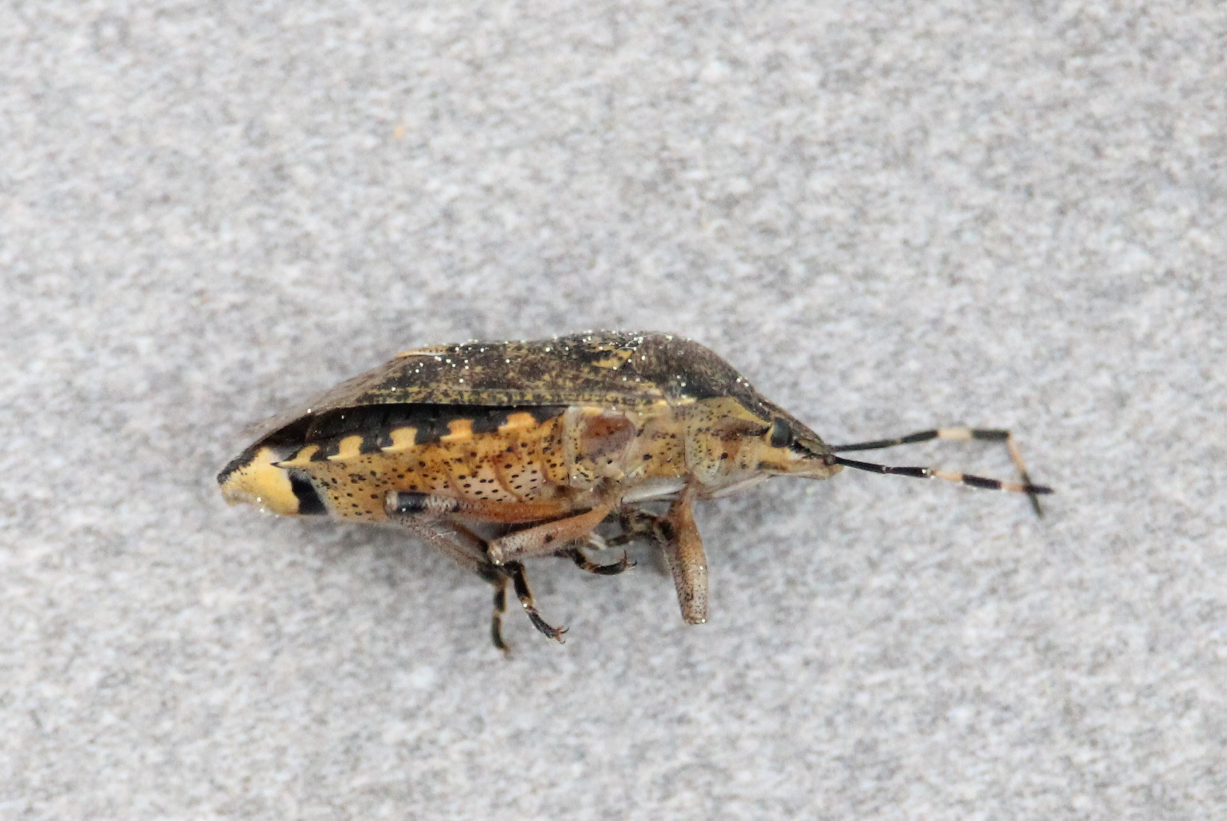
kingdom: Animalia
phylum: Arthropoda
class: Insecta
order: Hemiptera
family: Pentatomidae
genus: Rhaphigaster
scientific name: Rhaphigaster nebulosa
